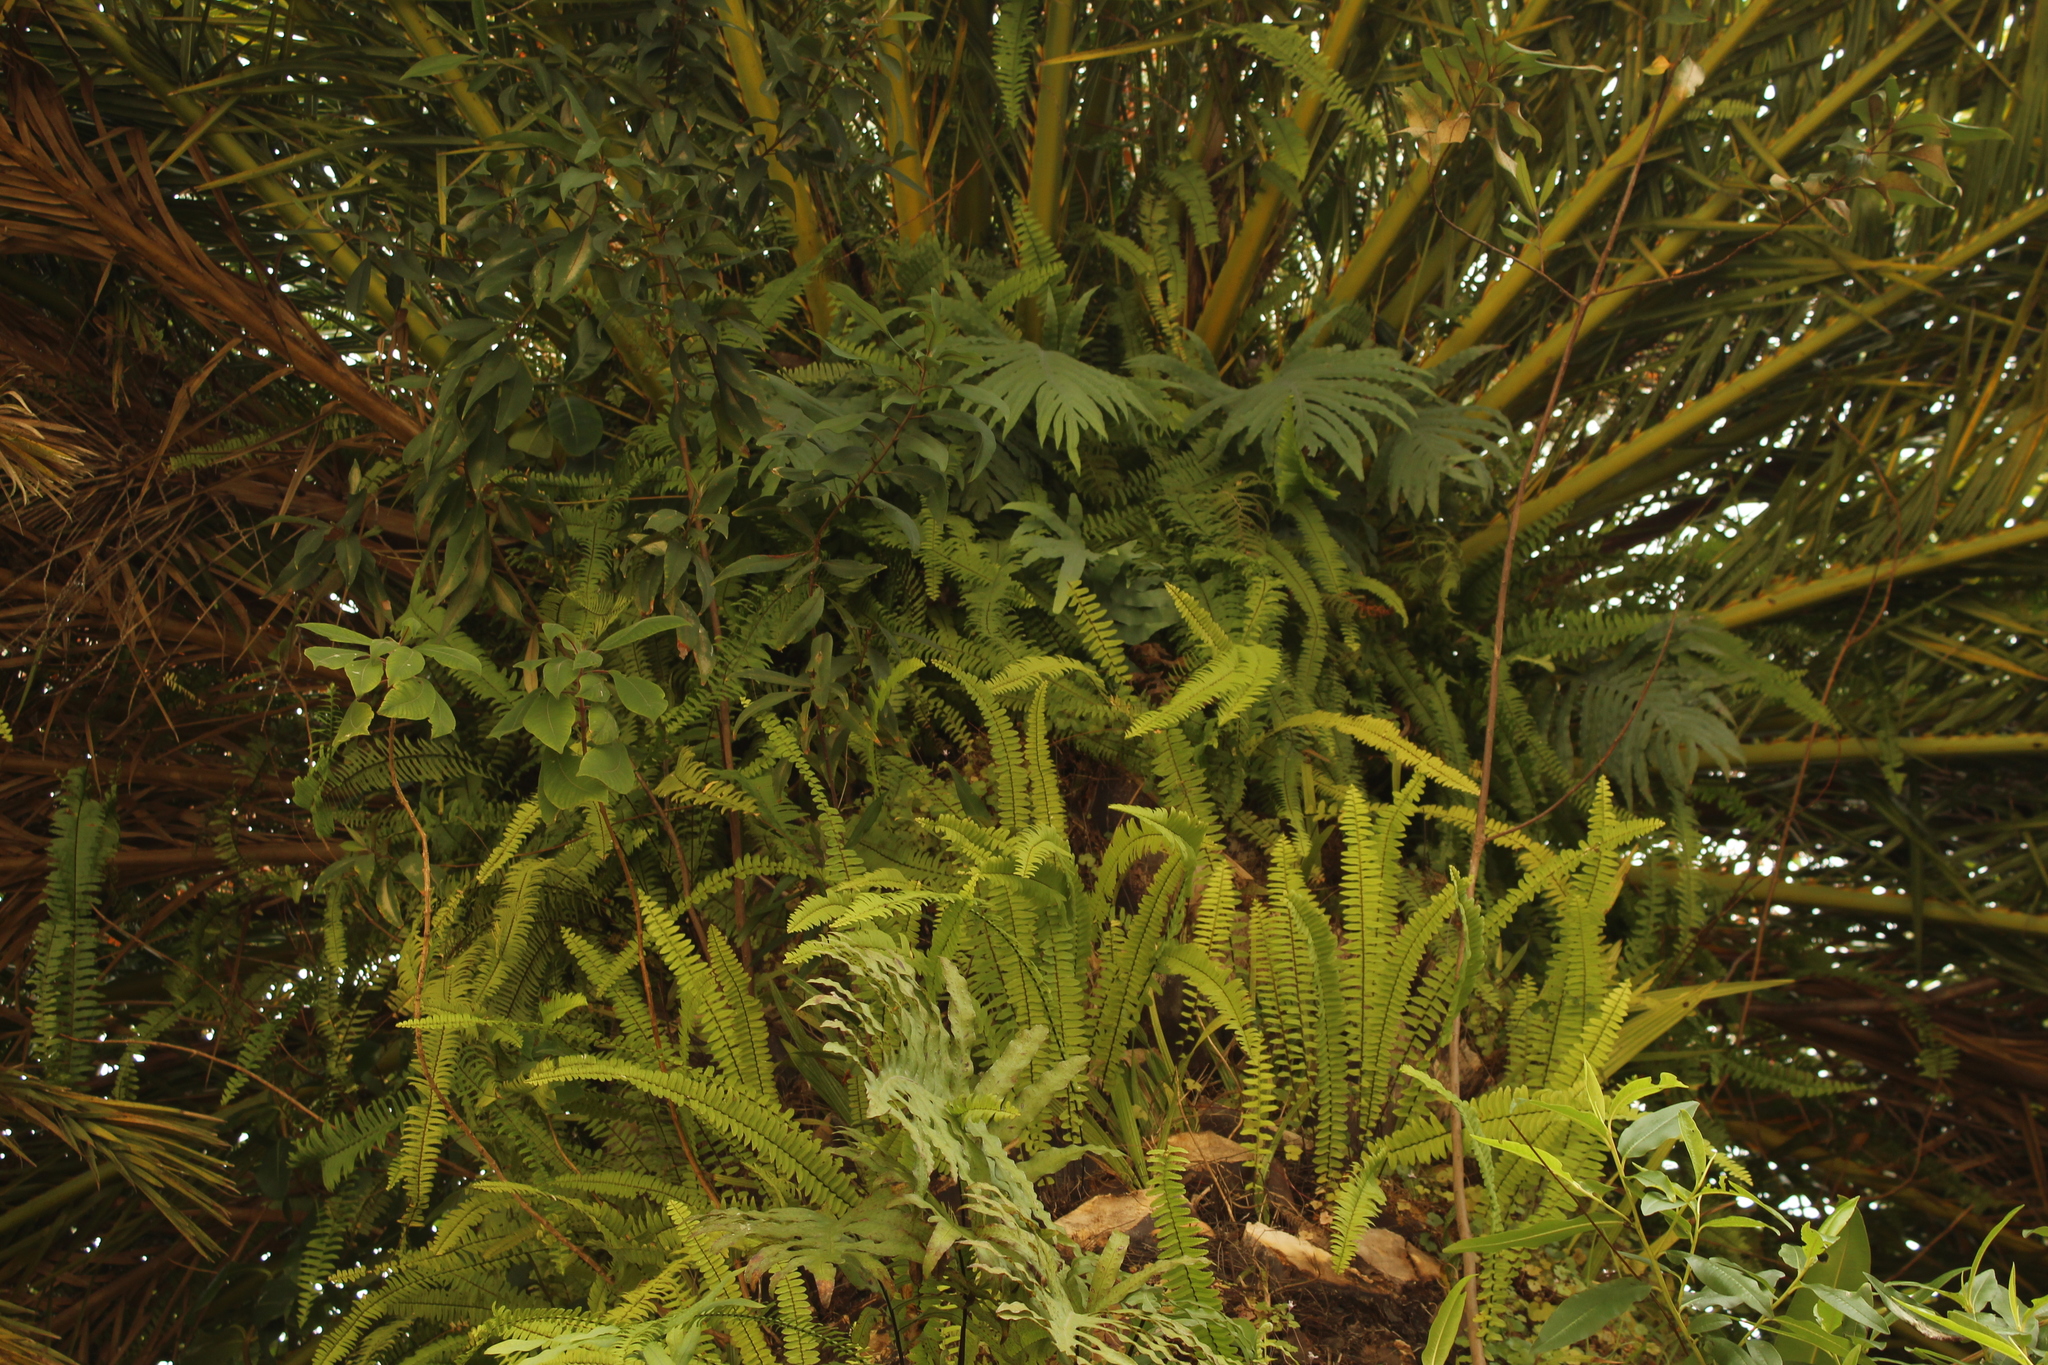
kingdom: Plantae
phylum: Tracheophyta
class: Polypodiopsida
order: Polypodiales
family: Nephrolepidaceae
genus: Nephrolepis
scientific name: Nephrolepis cordifolia
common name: Narrow swordfern
